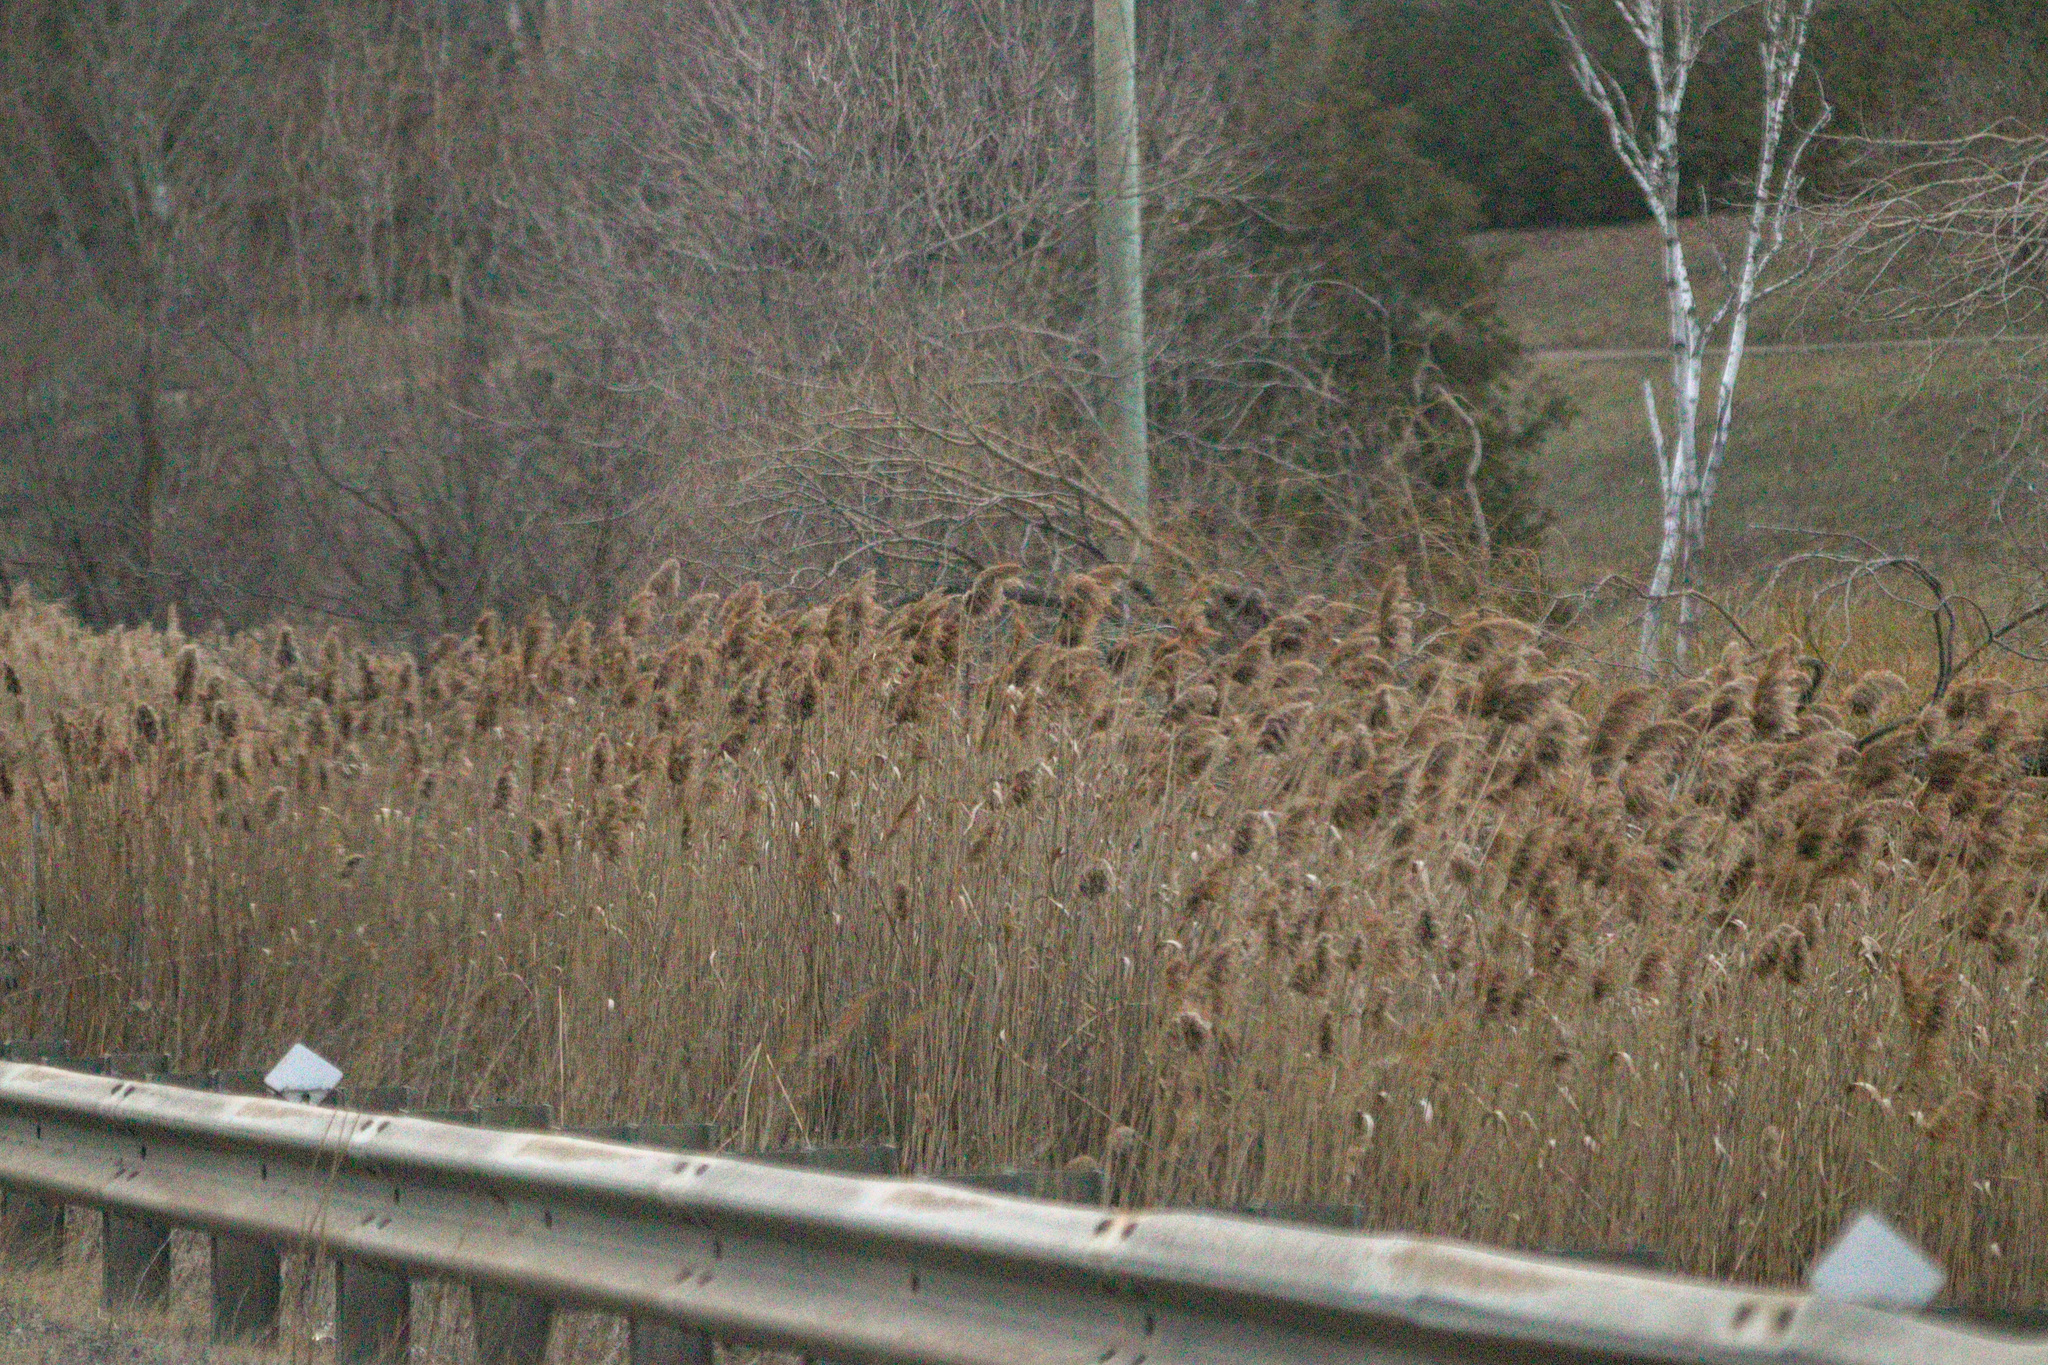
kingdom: Plantae
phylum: Tracheophyta
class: Liliopsida
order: Poales
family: Poaceae
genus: Phragmites
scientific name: Phragmites australis
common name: Common reed
